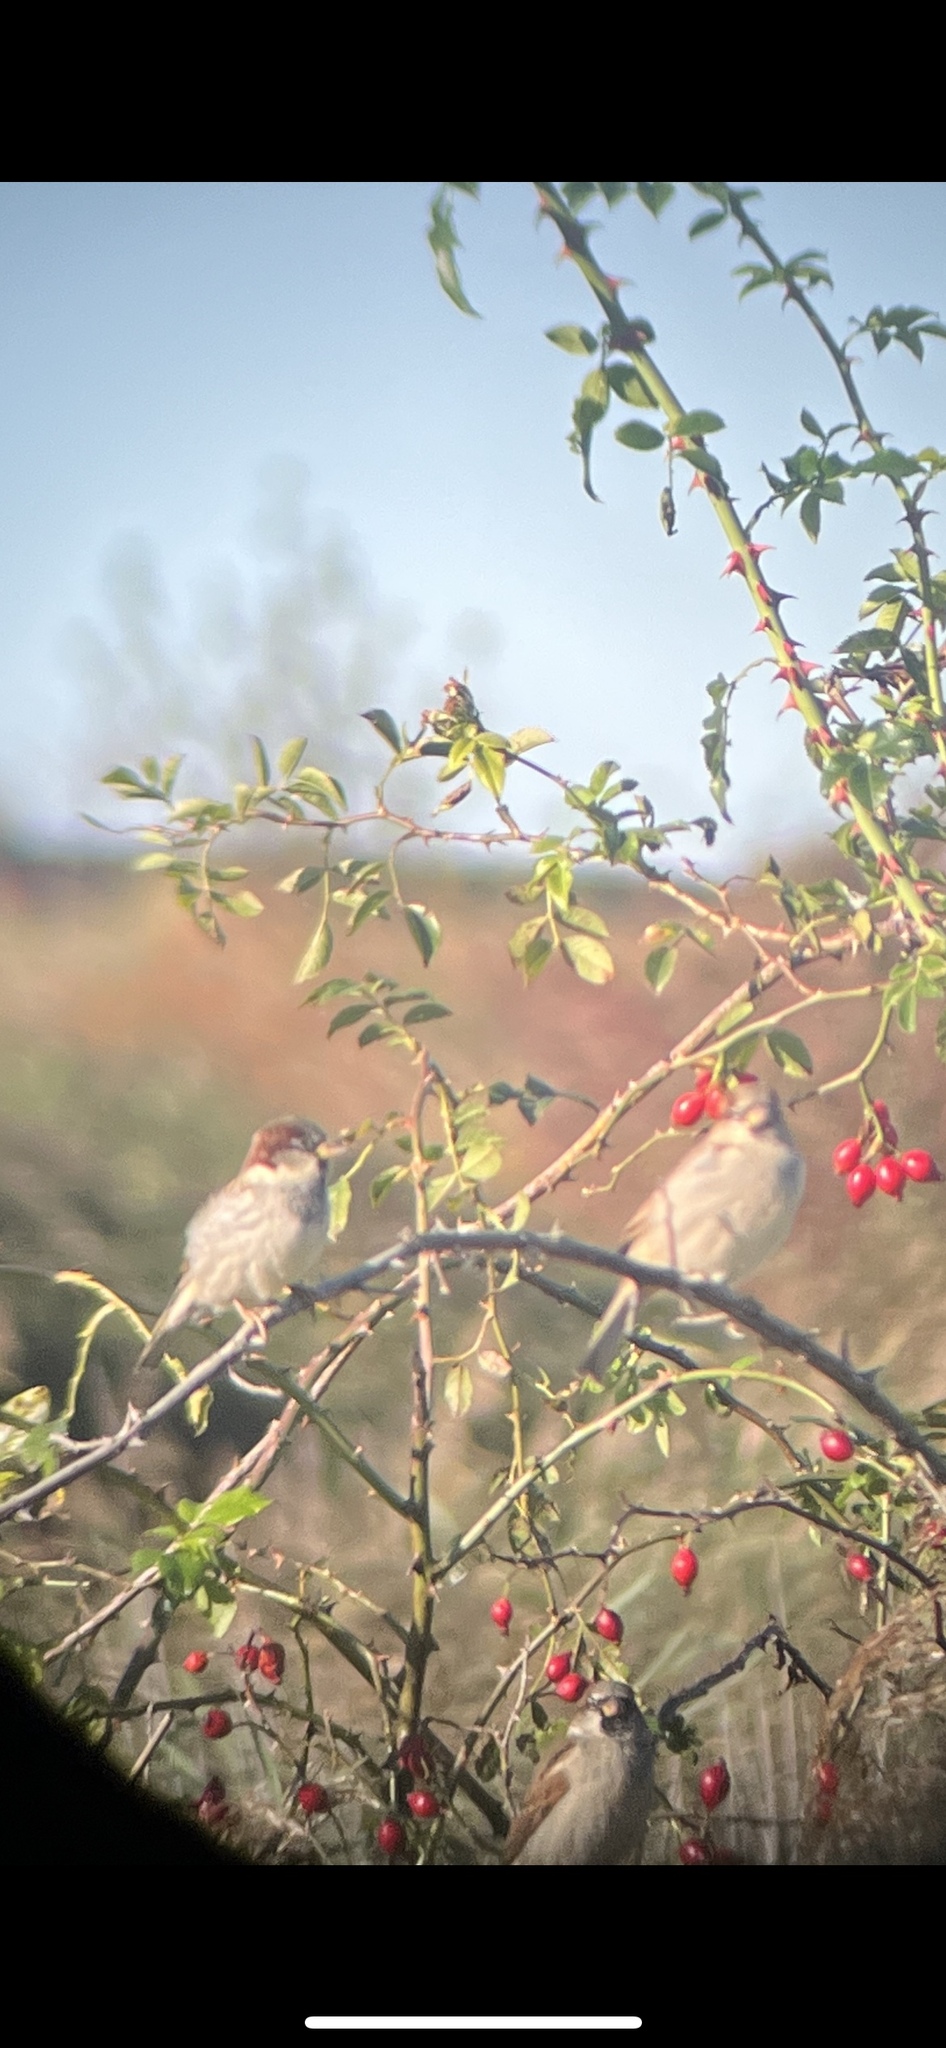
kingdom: Animalia
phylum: Chordata
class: Aves
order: Passeriformes
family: Passeridae
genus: Passer
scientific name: Passer domesticus
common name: House sparrow
